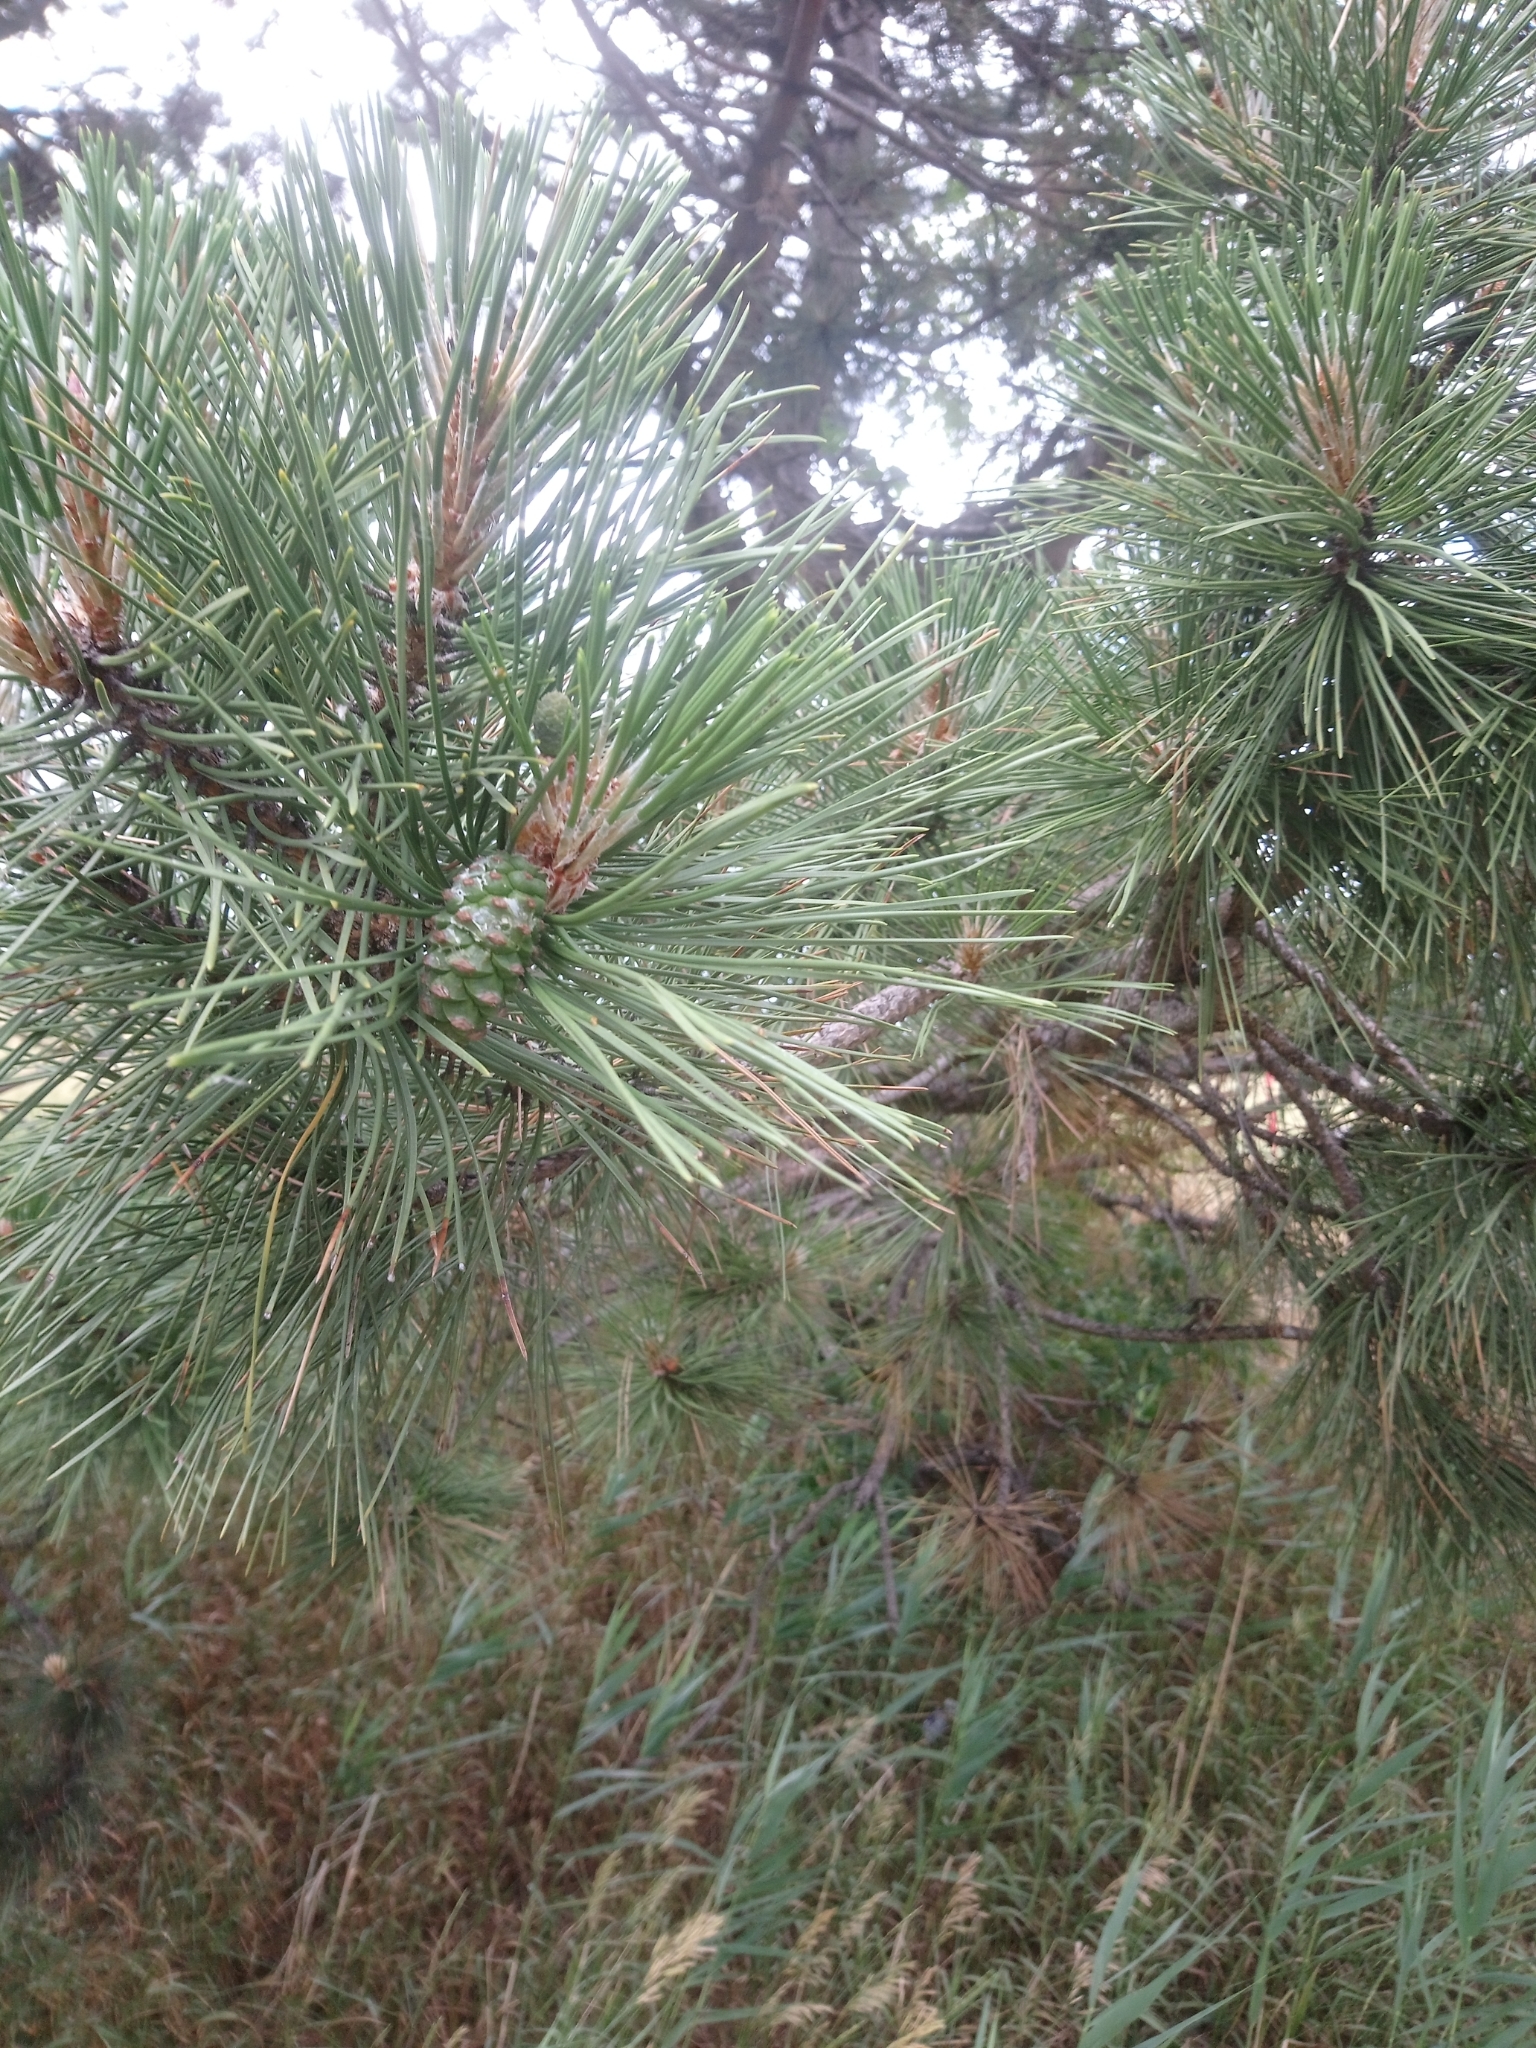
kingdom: Plantae
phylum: Tracheophyta
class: Pinopsida
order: Pinales
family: Pinaceae
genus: Pinus
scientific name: Pinus nigra
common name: Austrian pine
